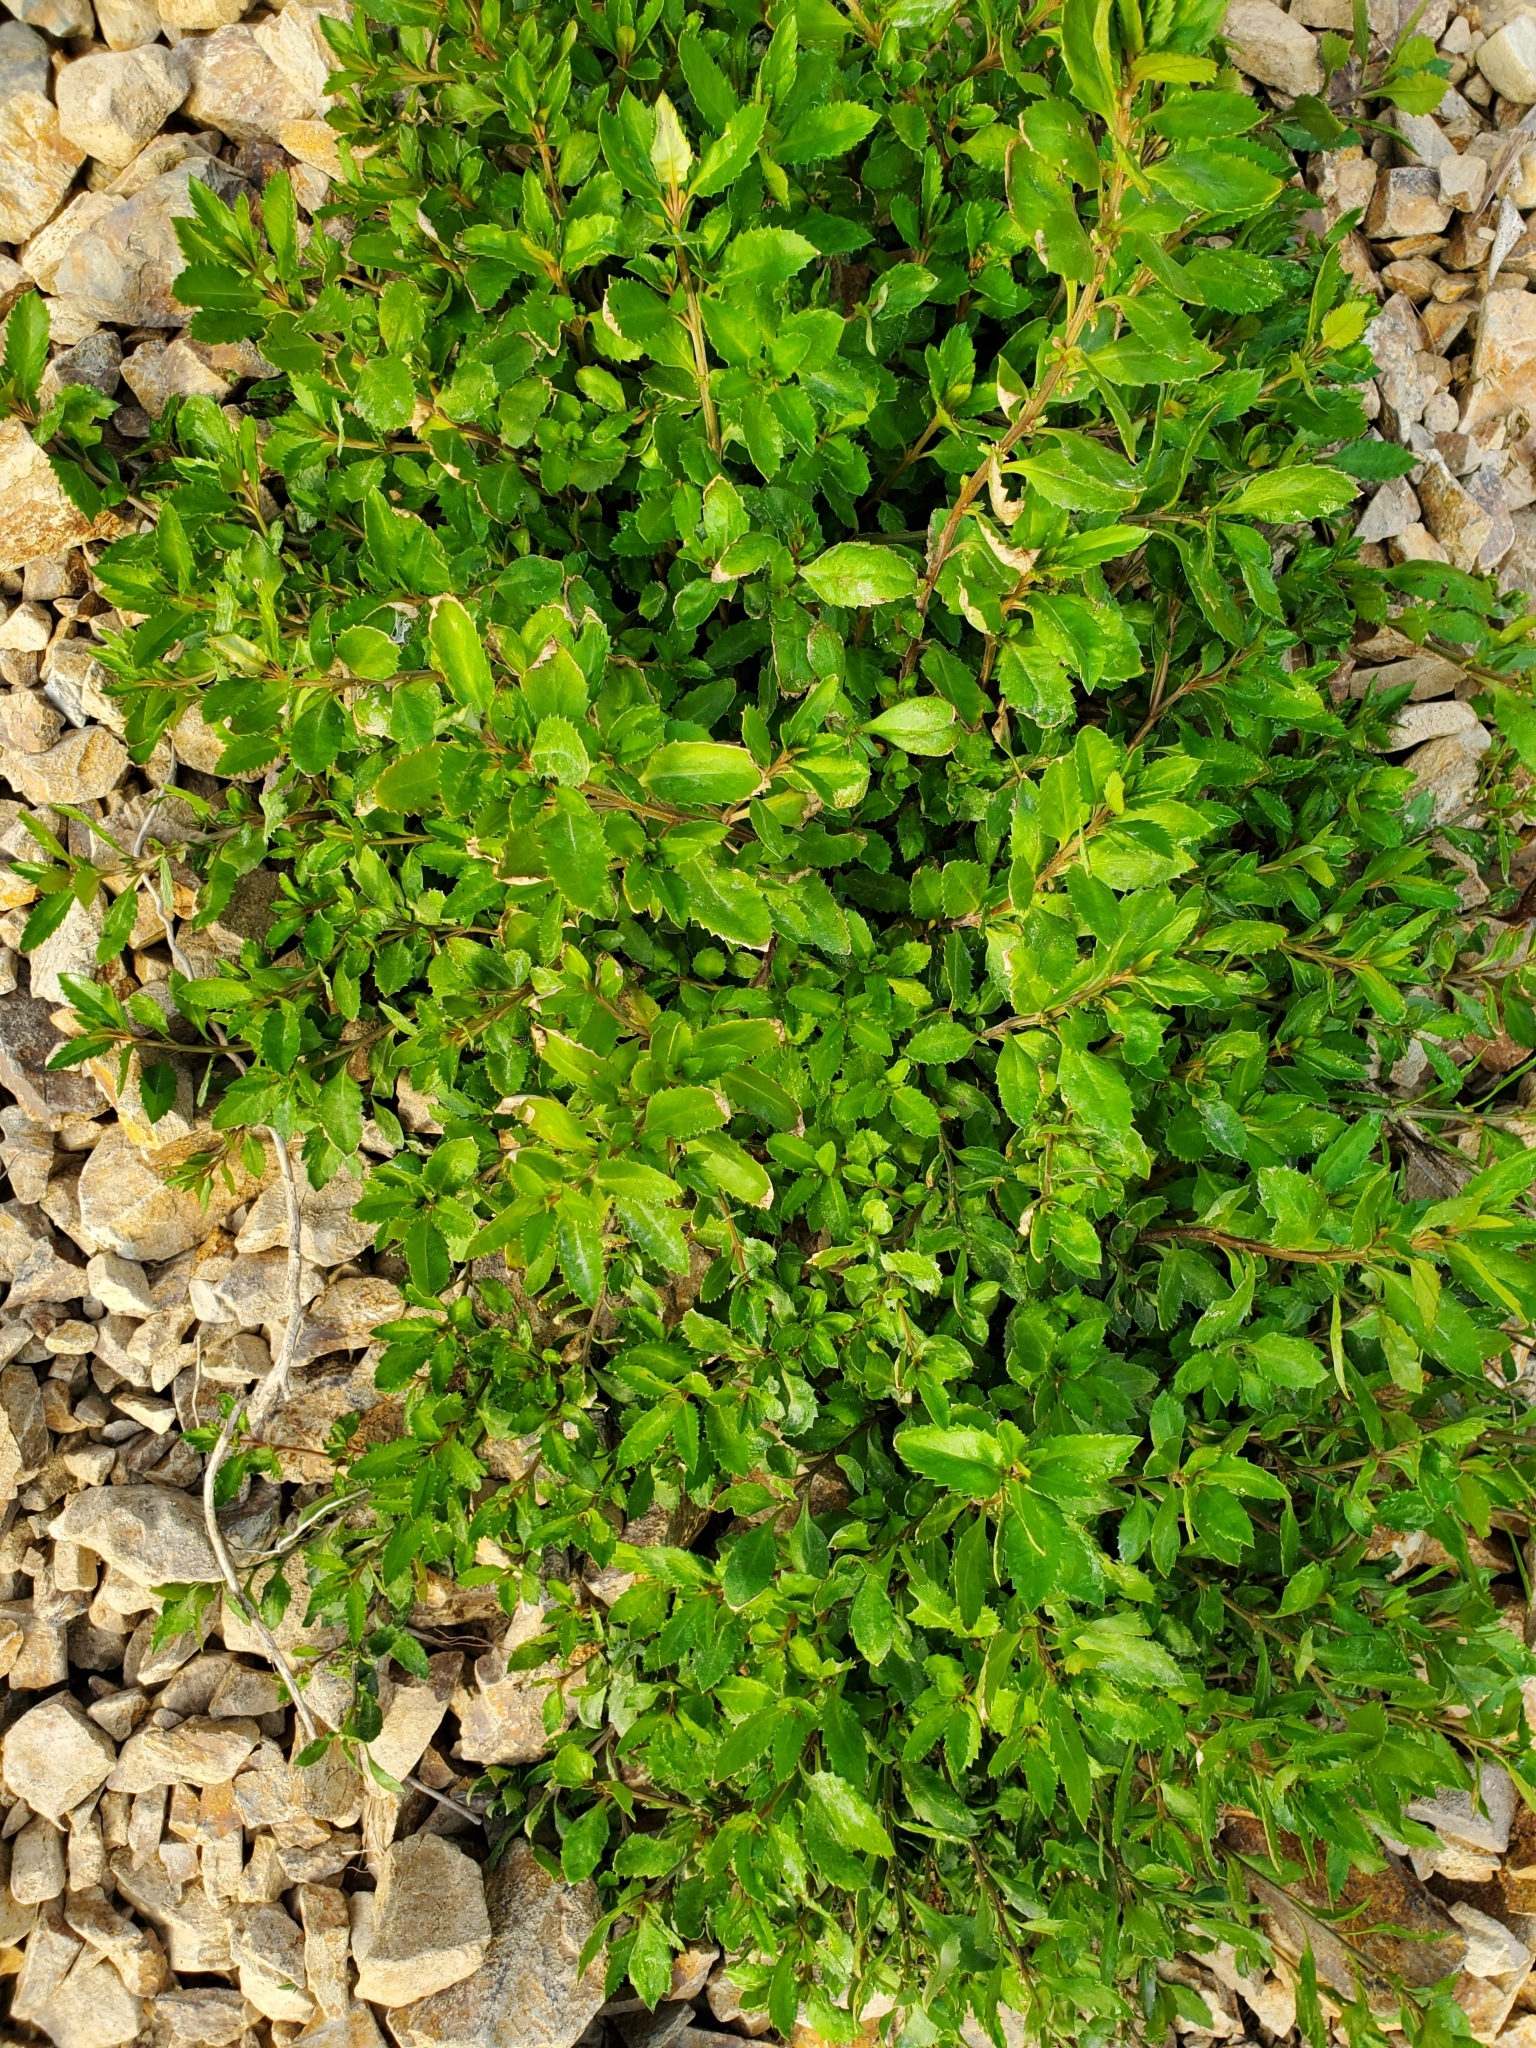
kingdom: Plantae
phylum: Tracheophyta
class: Magnoliopsida
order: Saxifragales
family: Haloragaceae
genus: Haloragis
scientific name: Haloragis erecta
